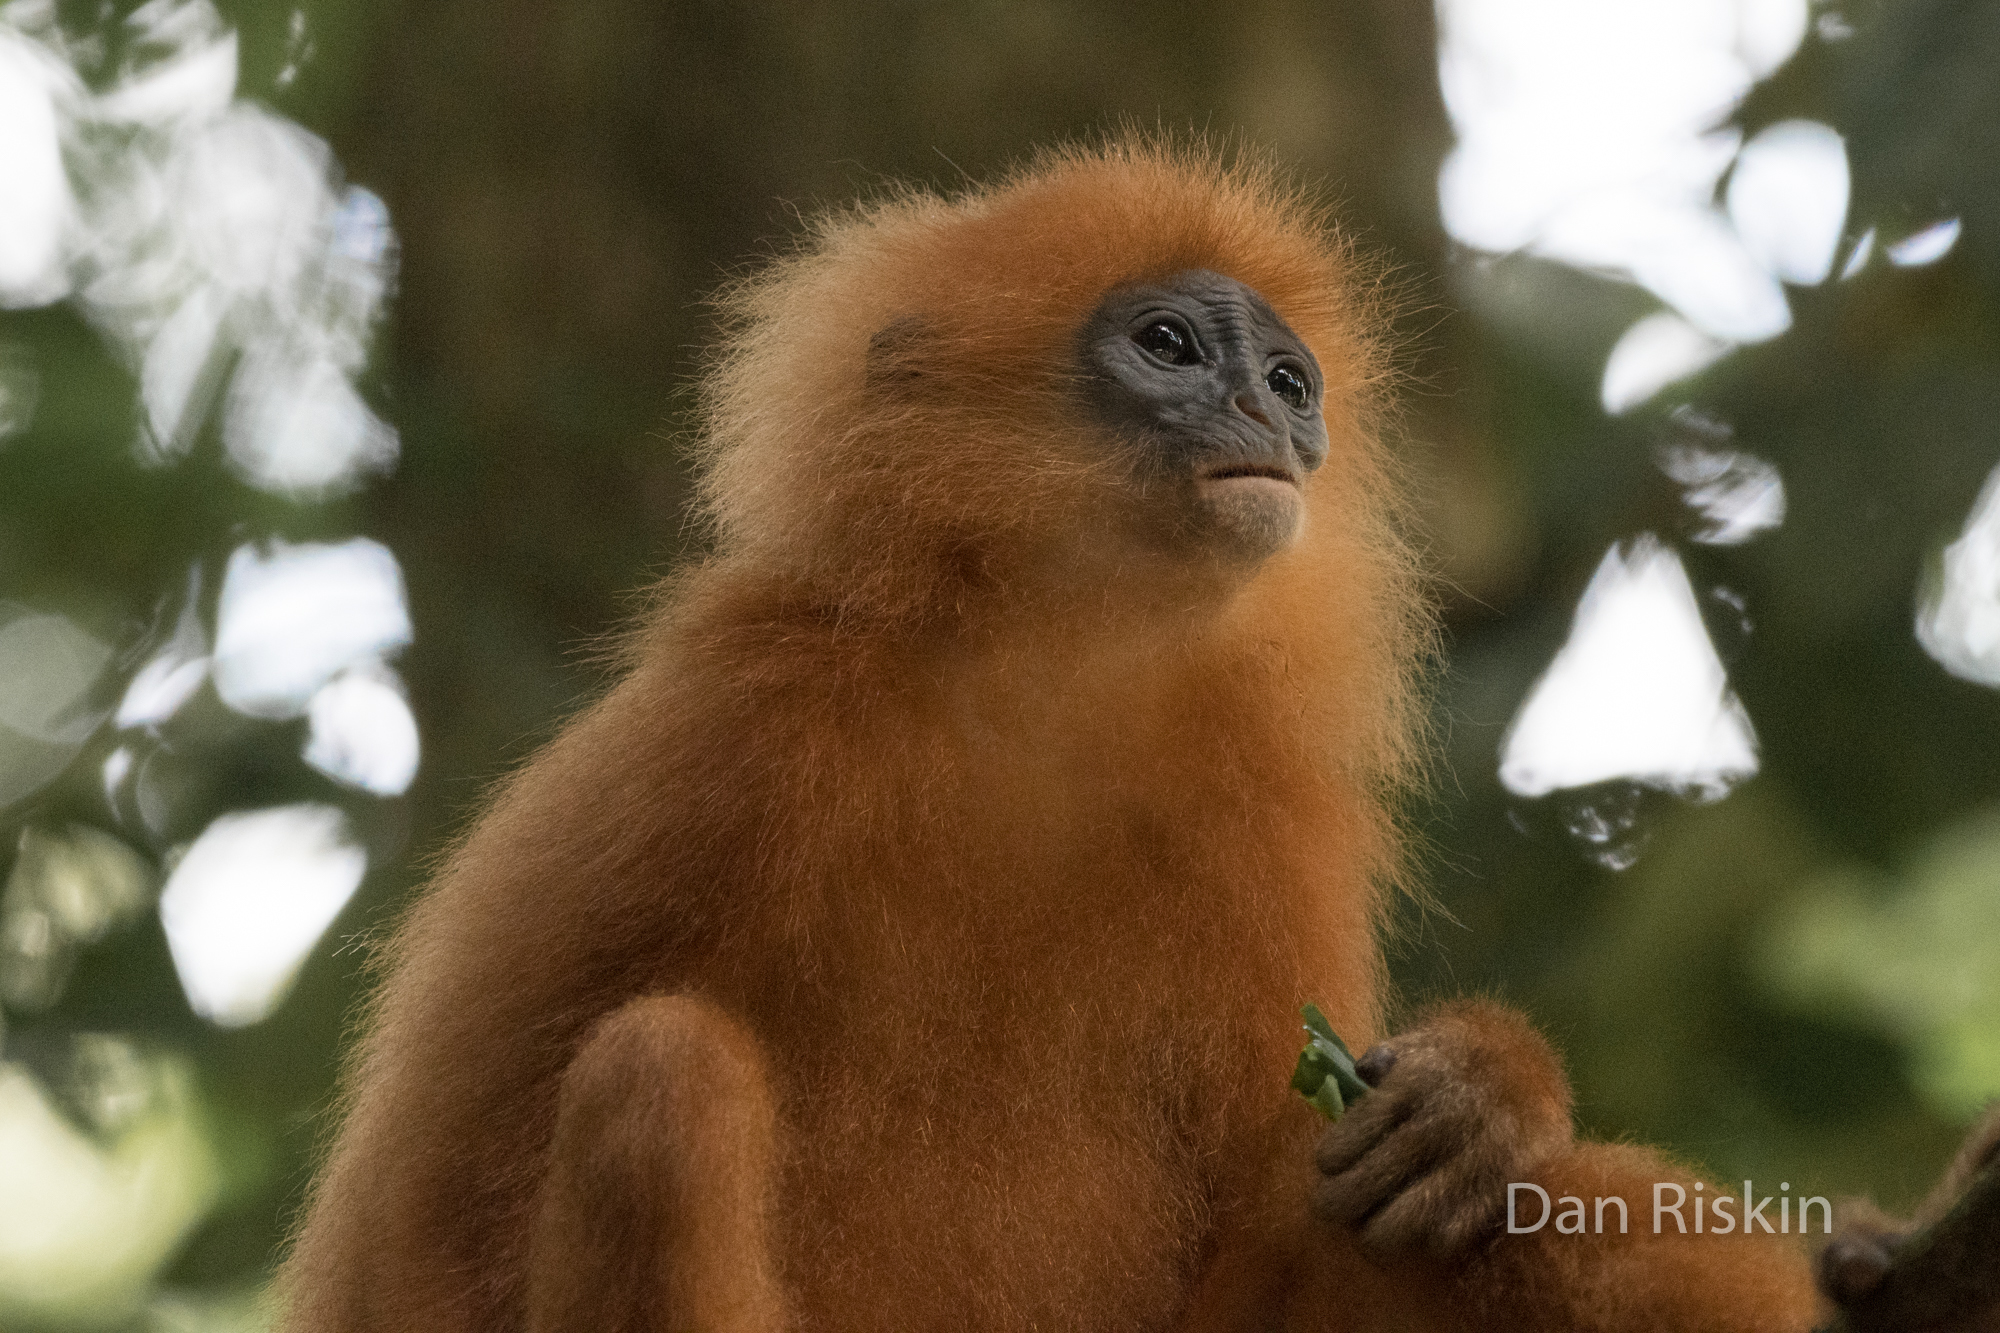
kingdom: Animalia
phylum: Chordata
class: Mammalia
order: Primates
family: Cercopithecidae
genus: Presbytis
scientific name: Presbytis rubicunda
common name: Maroon leaf monkey
